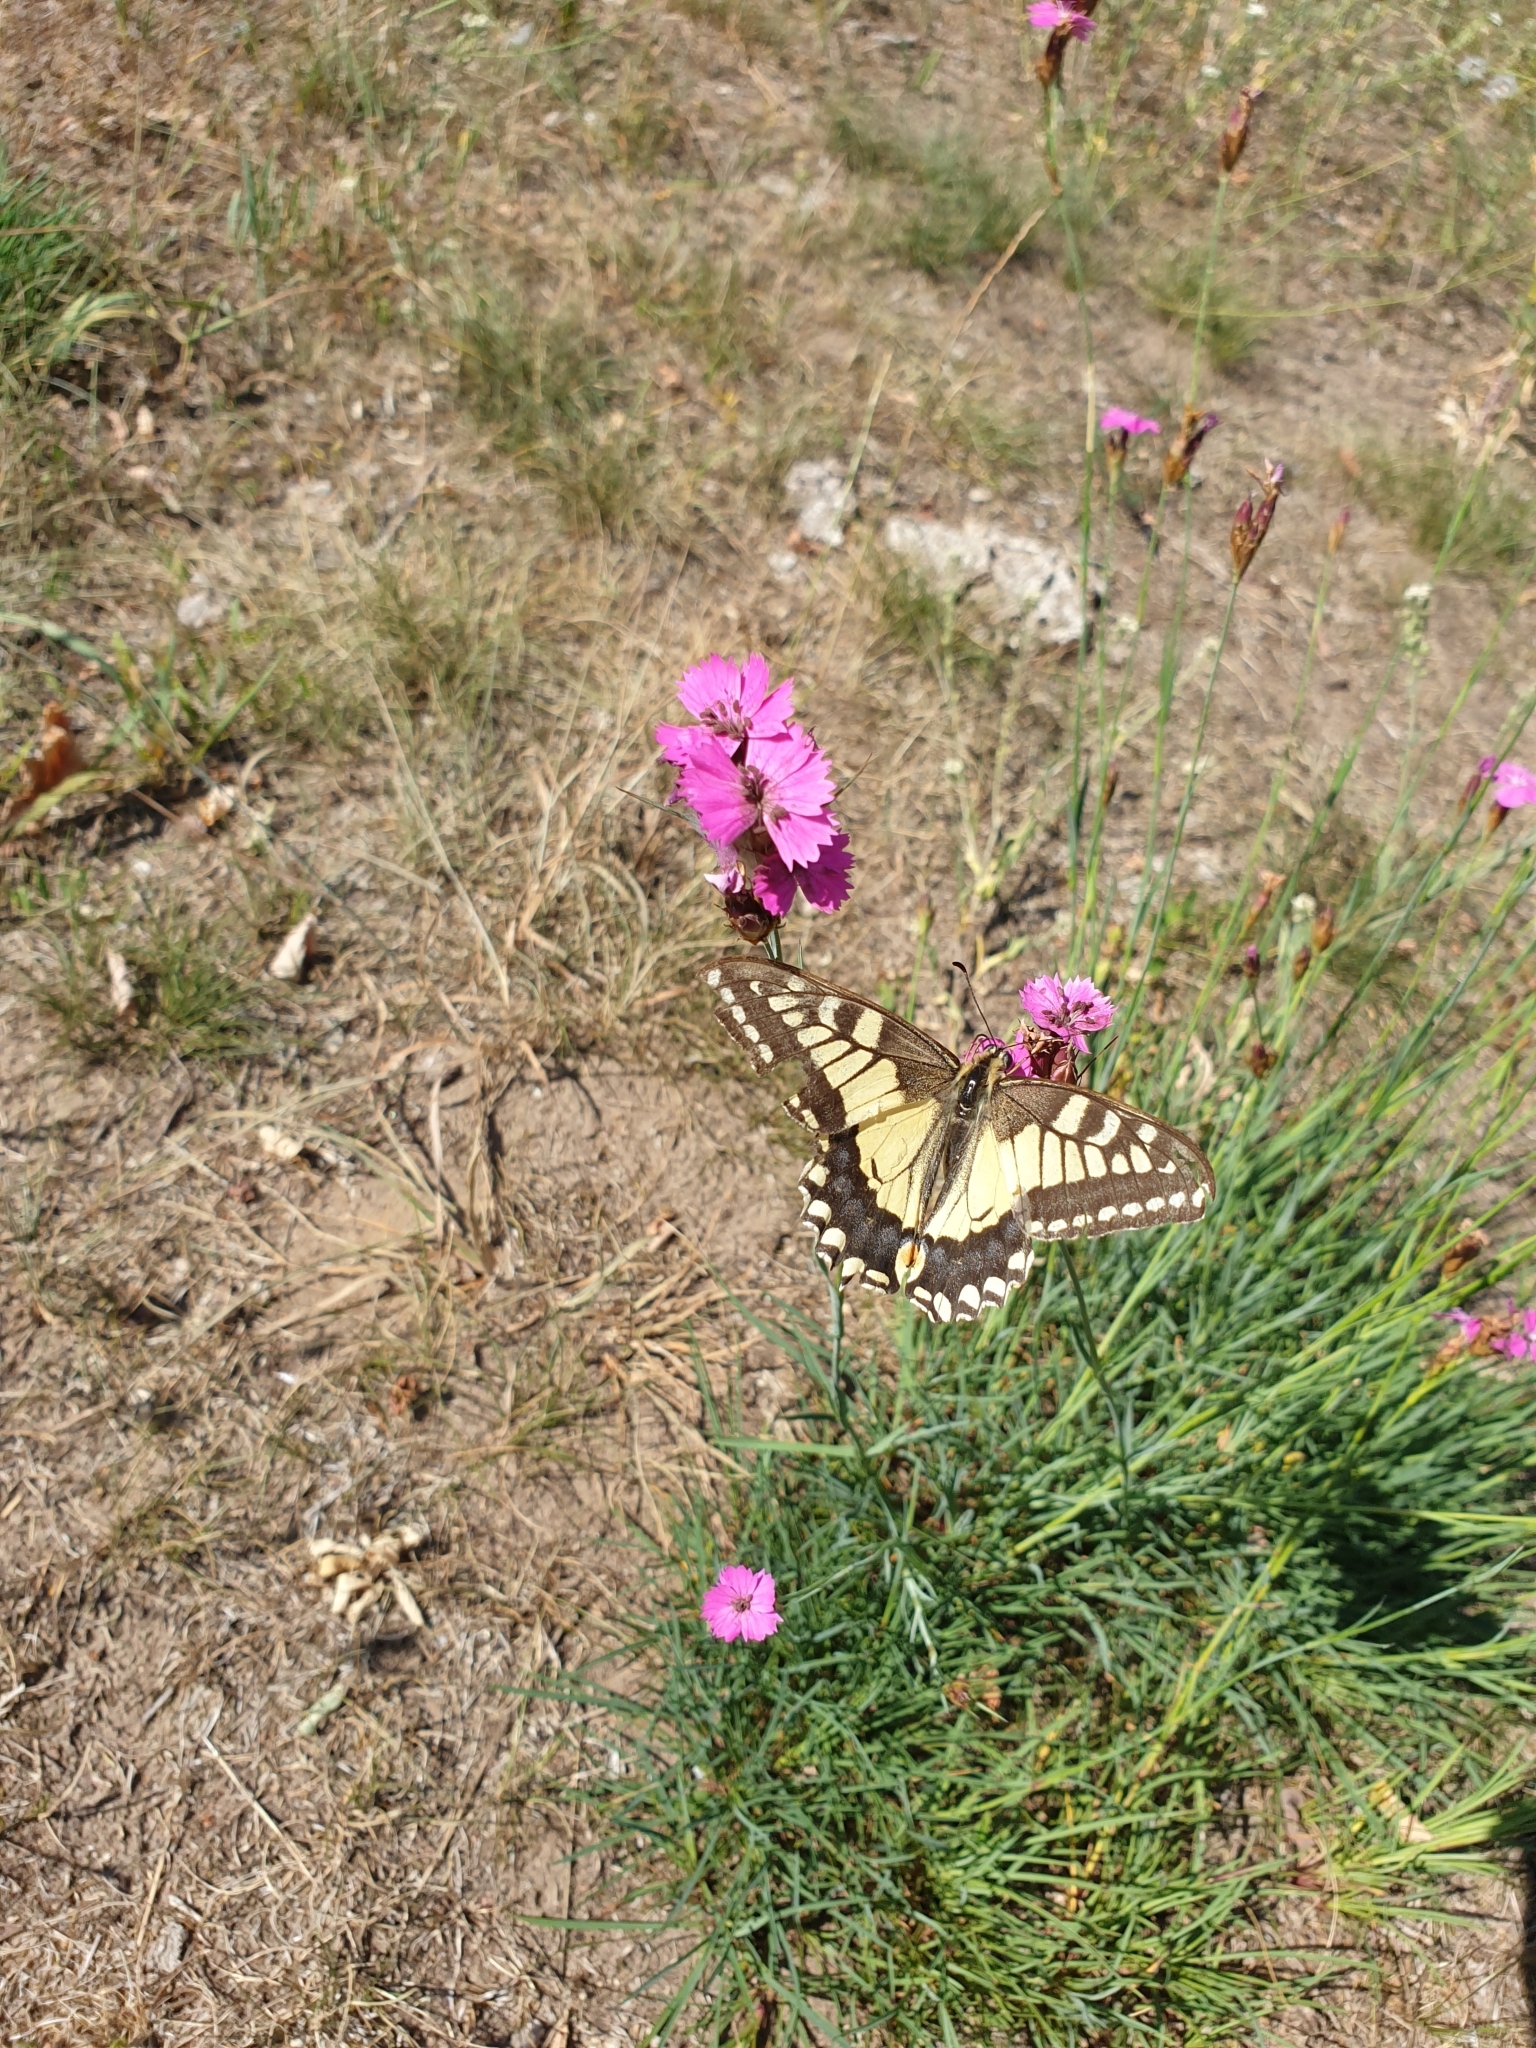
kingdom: Animalia
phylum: Arthropoda
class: Insecta
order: Lepidoptera
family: Papilionidae
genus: Papilio
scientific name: Papilio machaon
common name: Swallowtail
